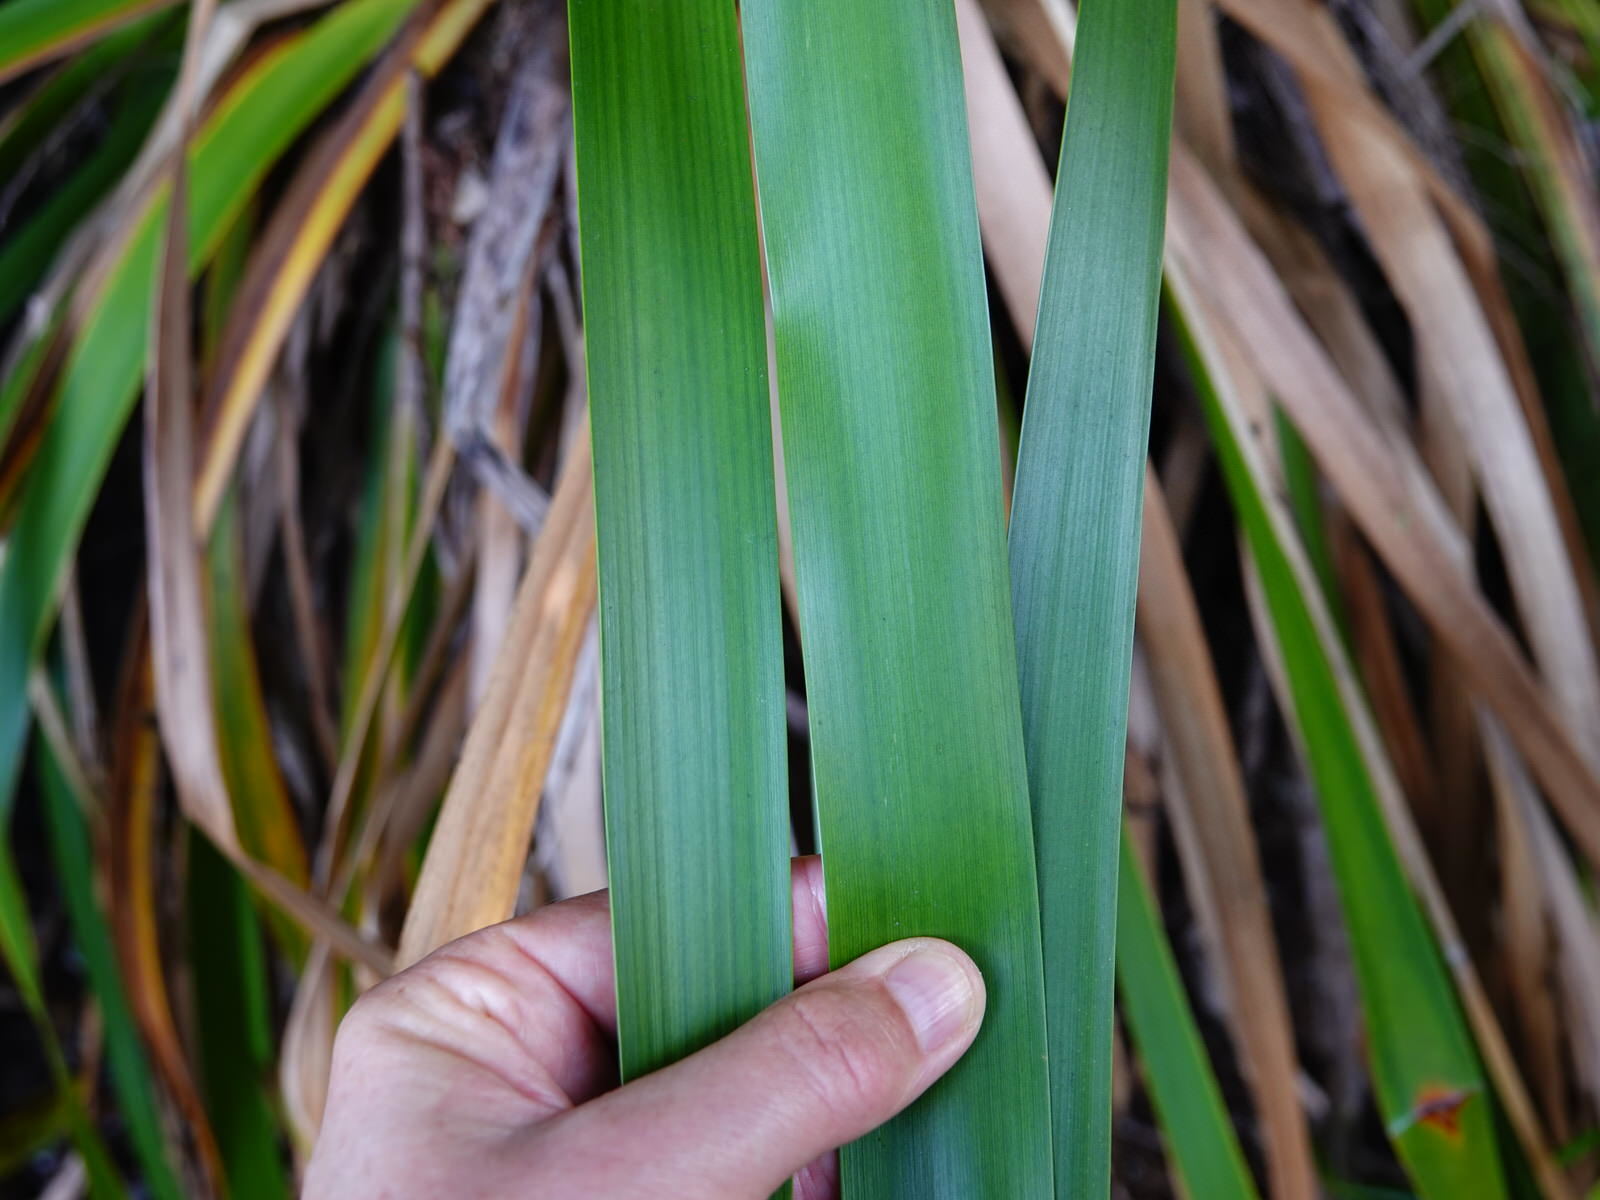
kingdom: Plantae
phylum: Tracheophyta
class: Liliopsida
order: Poales
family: Cyperaceae
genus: Machaerina
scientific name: Machaerina sinclairii
